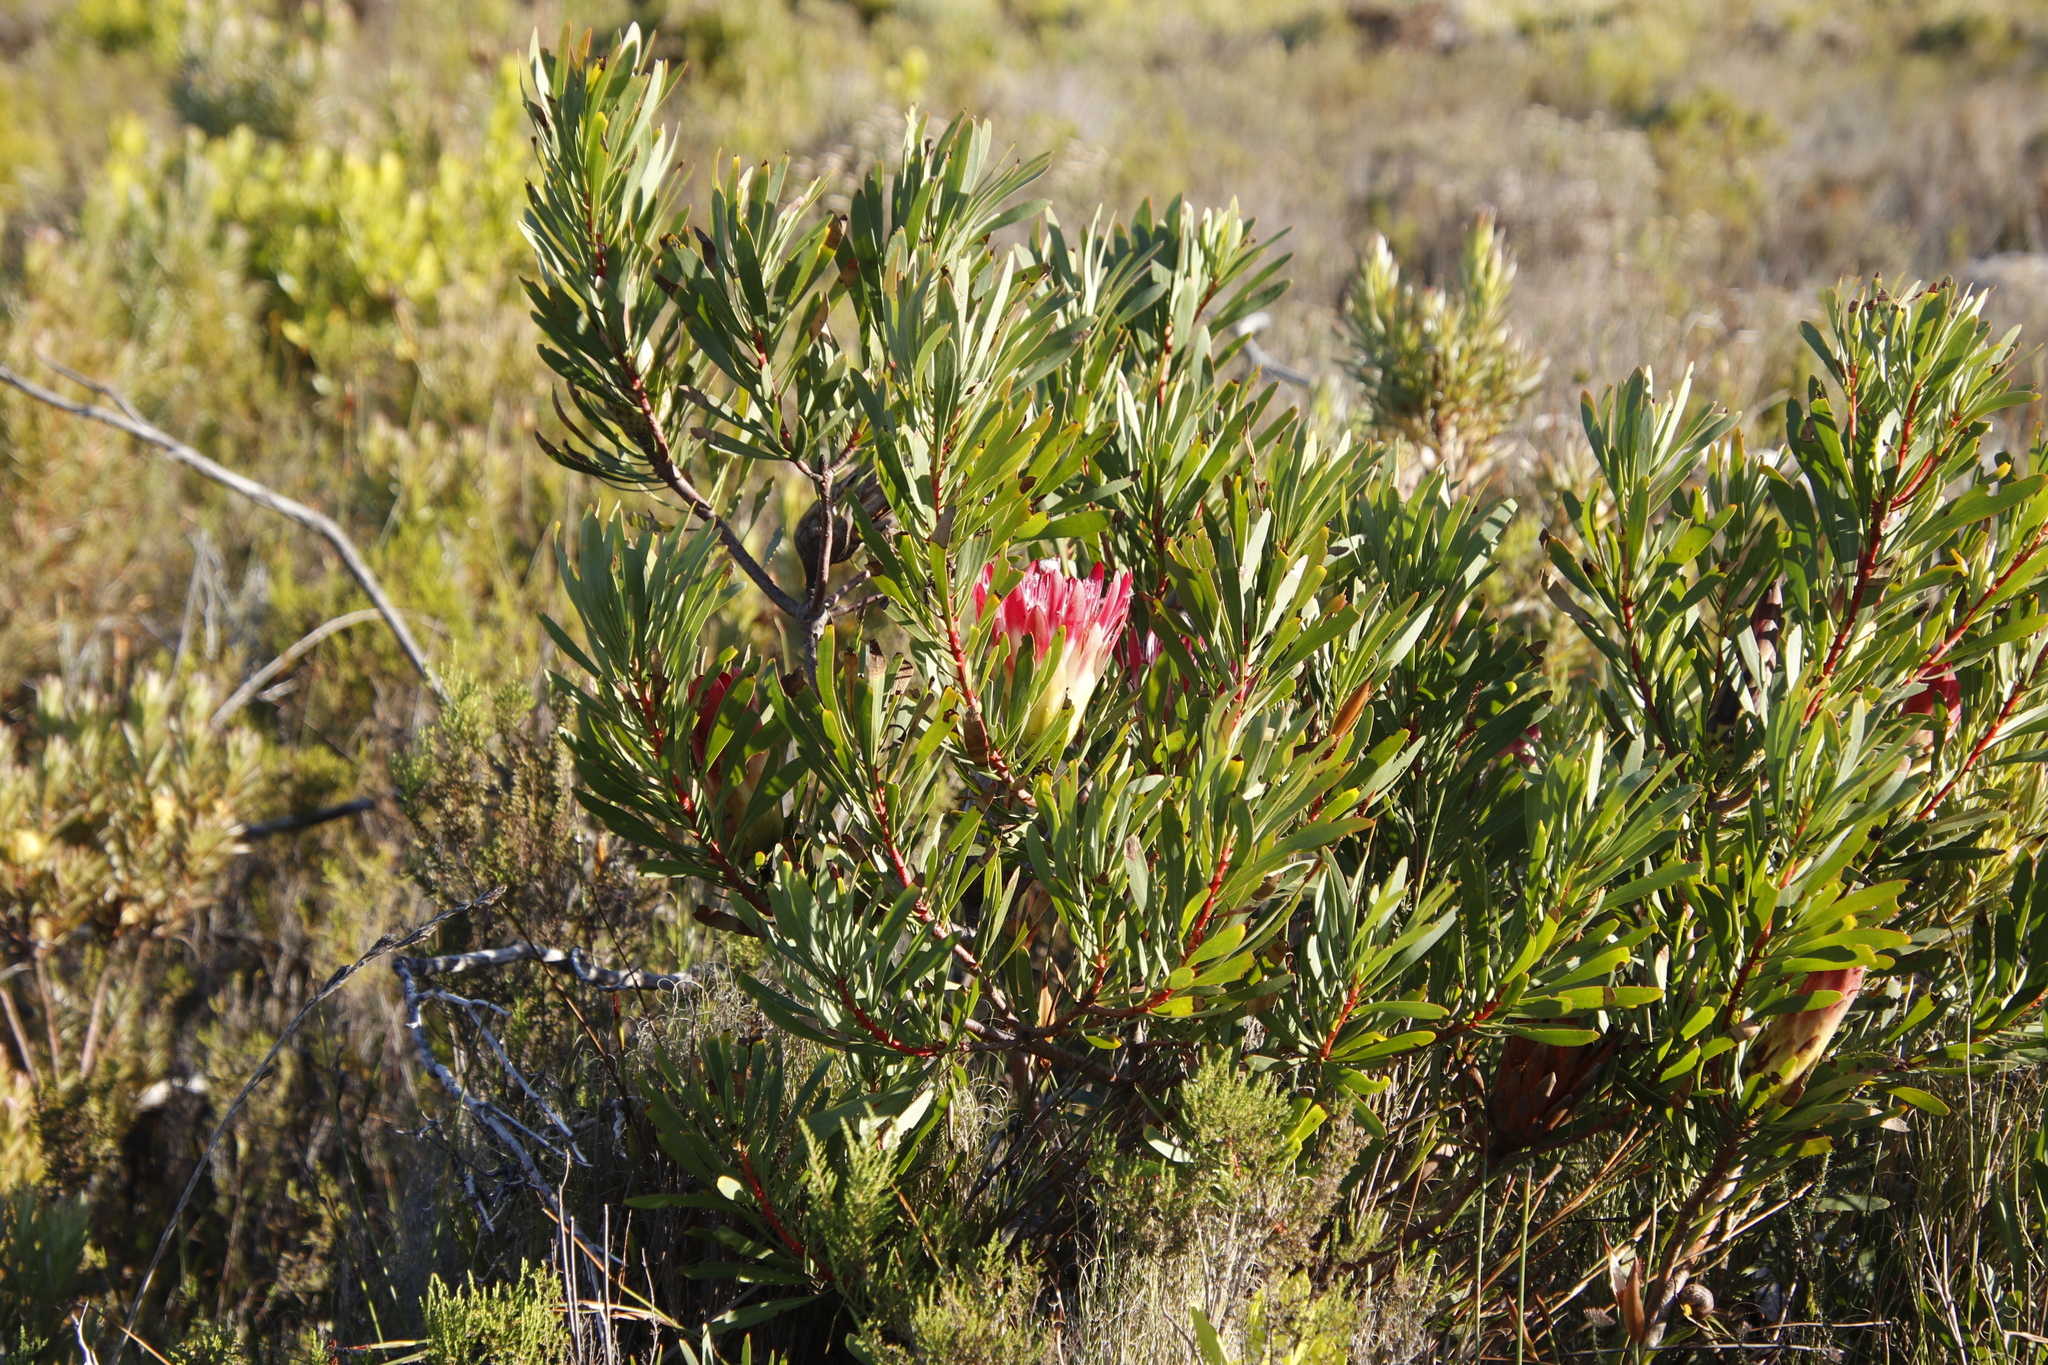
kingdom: Plantae
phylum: Tracheophyta
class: Magnoliopsida
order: Proteales
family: Proteaceae
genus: Protea
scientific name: Protea repens
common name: Sugarbush
